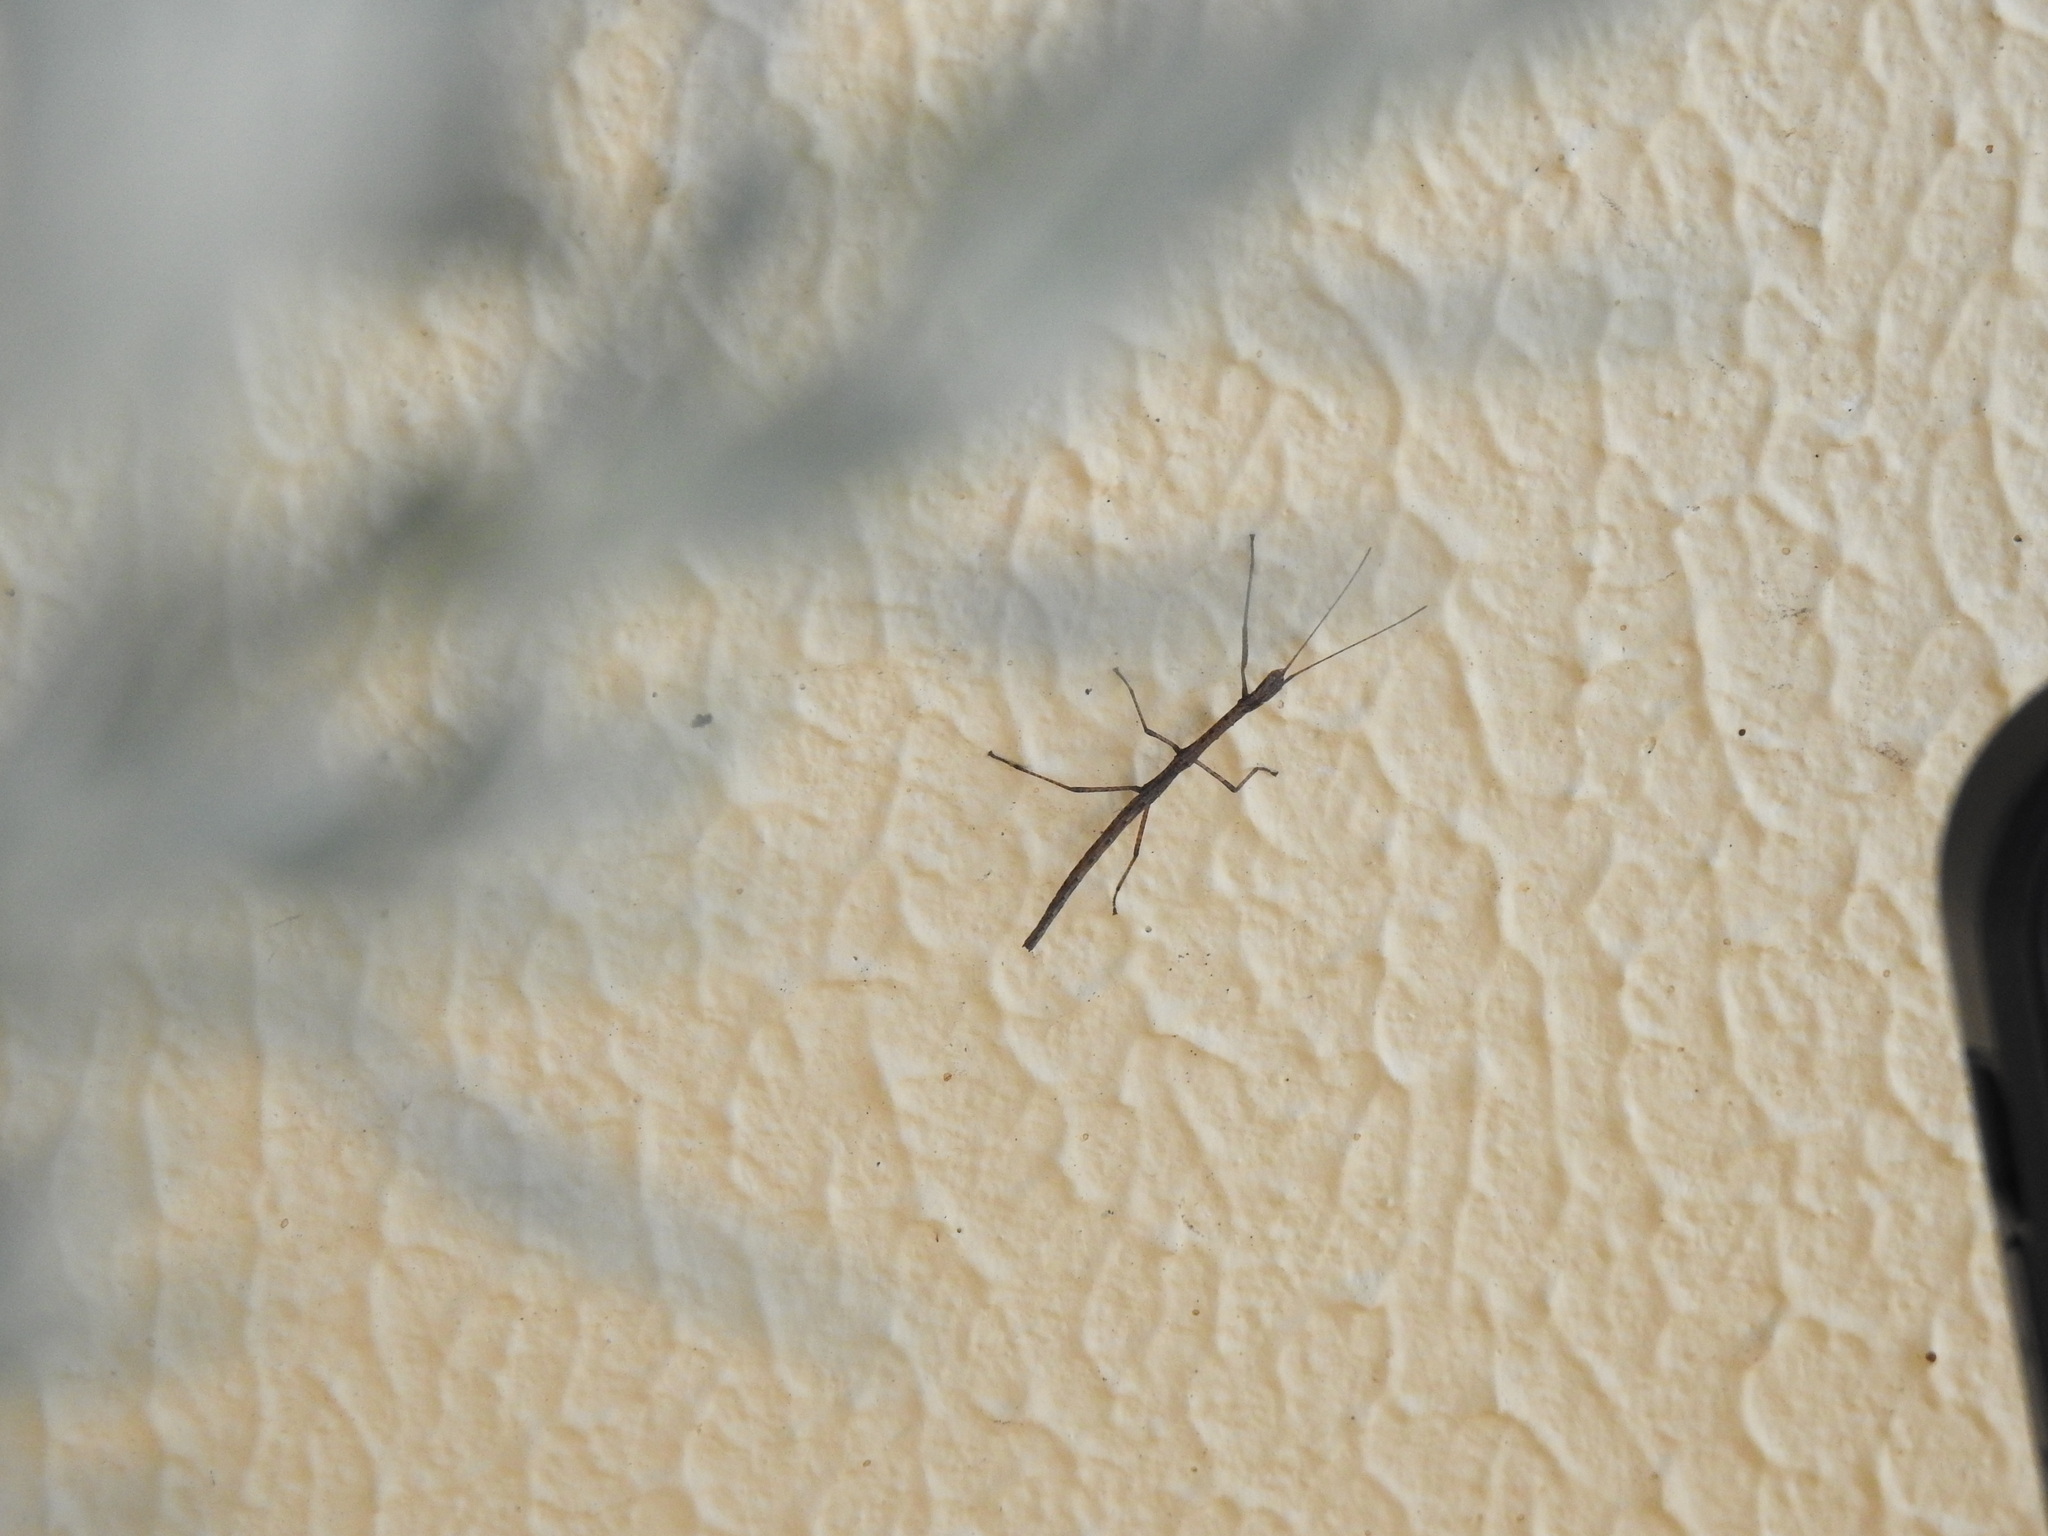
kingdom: Animalia
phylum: Arthropoda
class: Insecta
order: Phasmida
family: Lonchodidae
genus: Carausius
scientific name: Carausius morosus
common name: Indian stick insect
